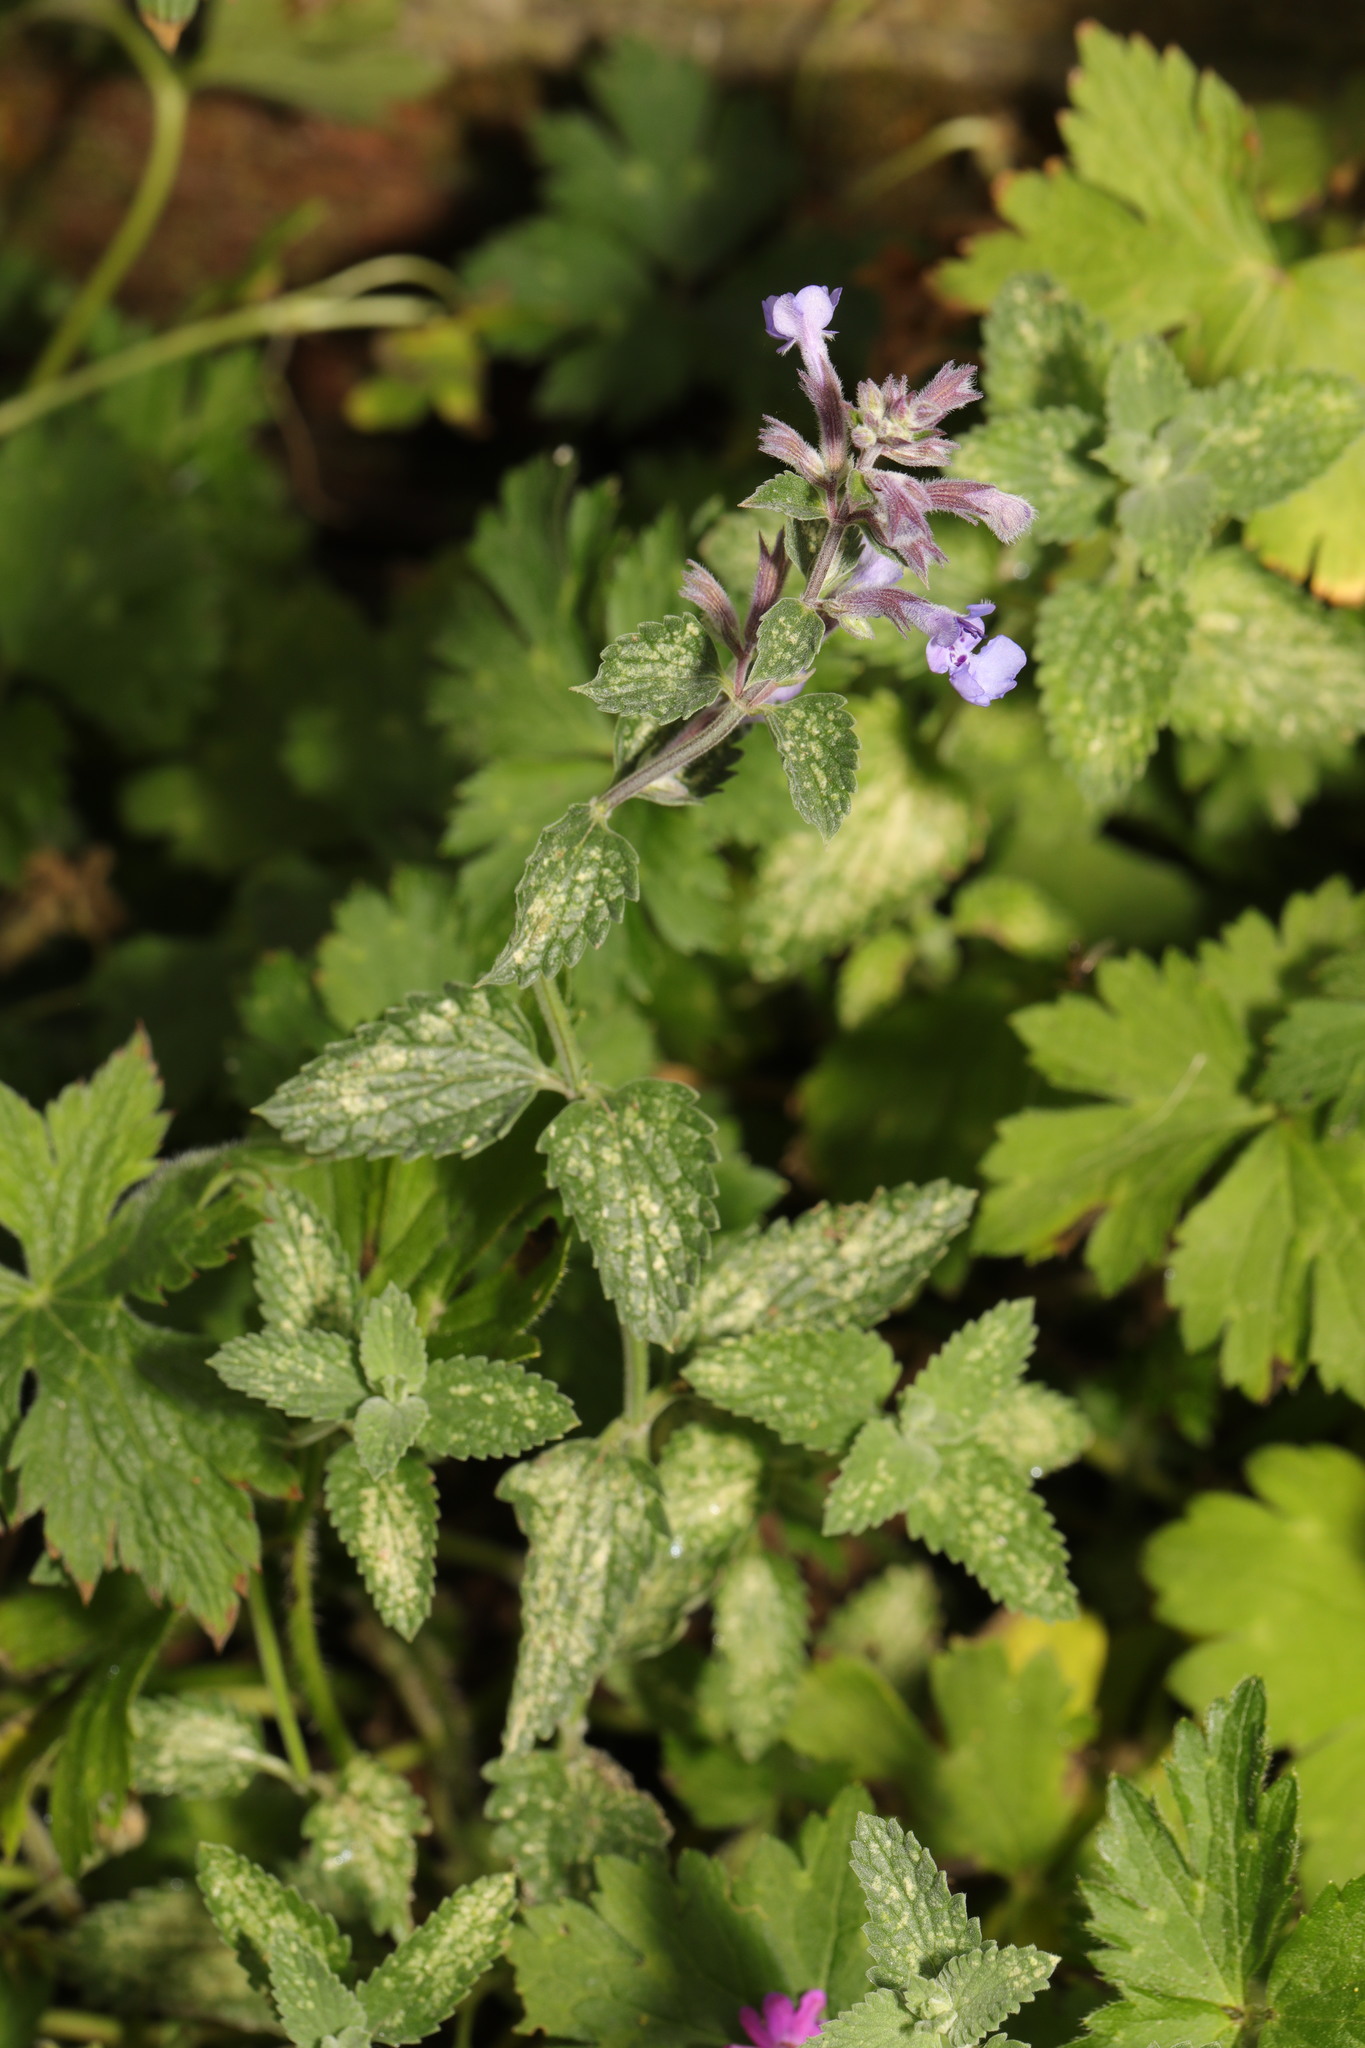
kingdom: Plantae
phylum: Tracheophyta
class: Magnoliopsida
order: Lamiales
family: Lamiaceae
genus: Nepeta
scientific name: Nepeta faassenii
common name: Catmint
